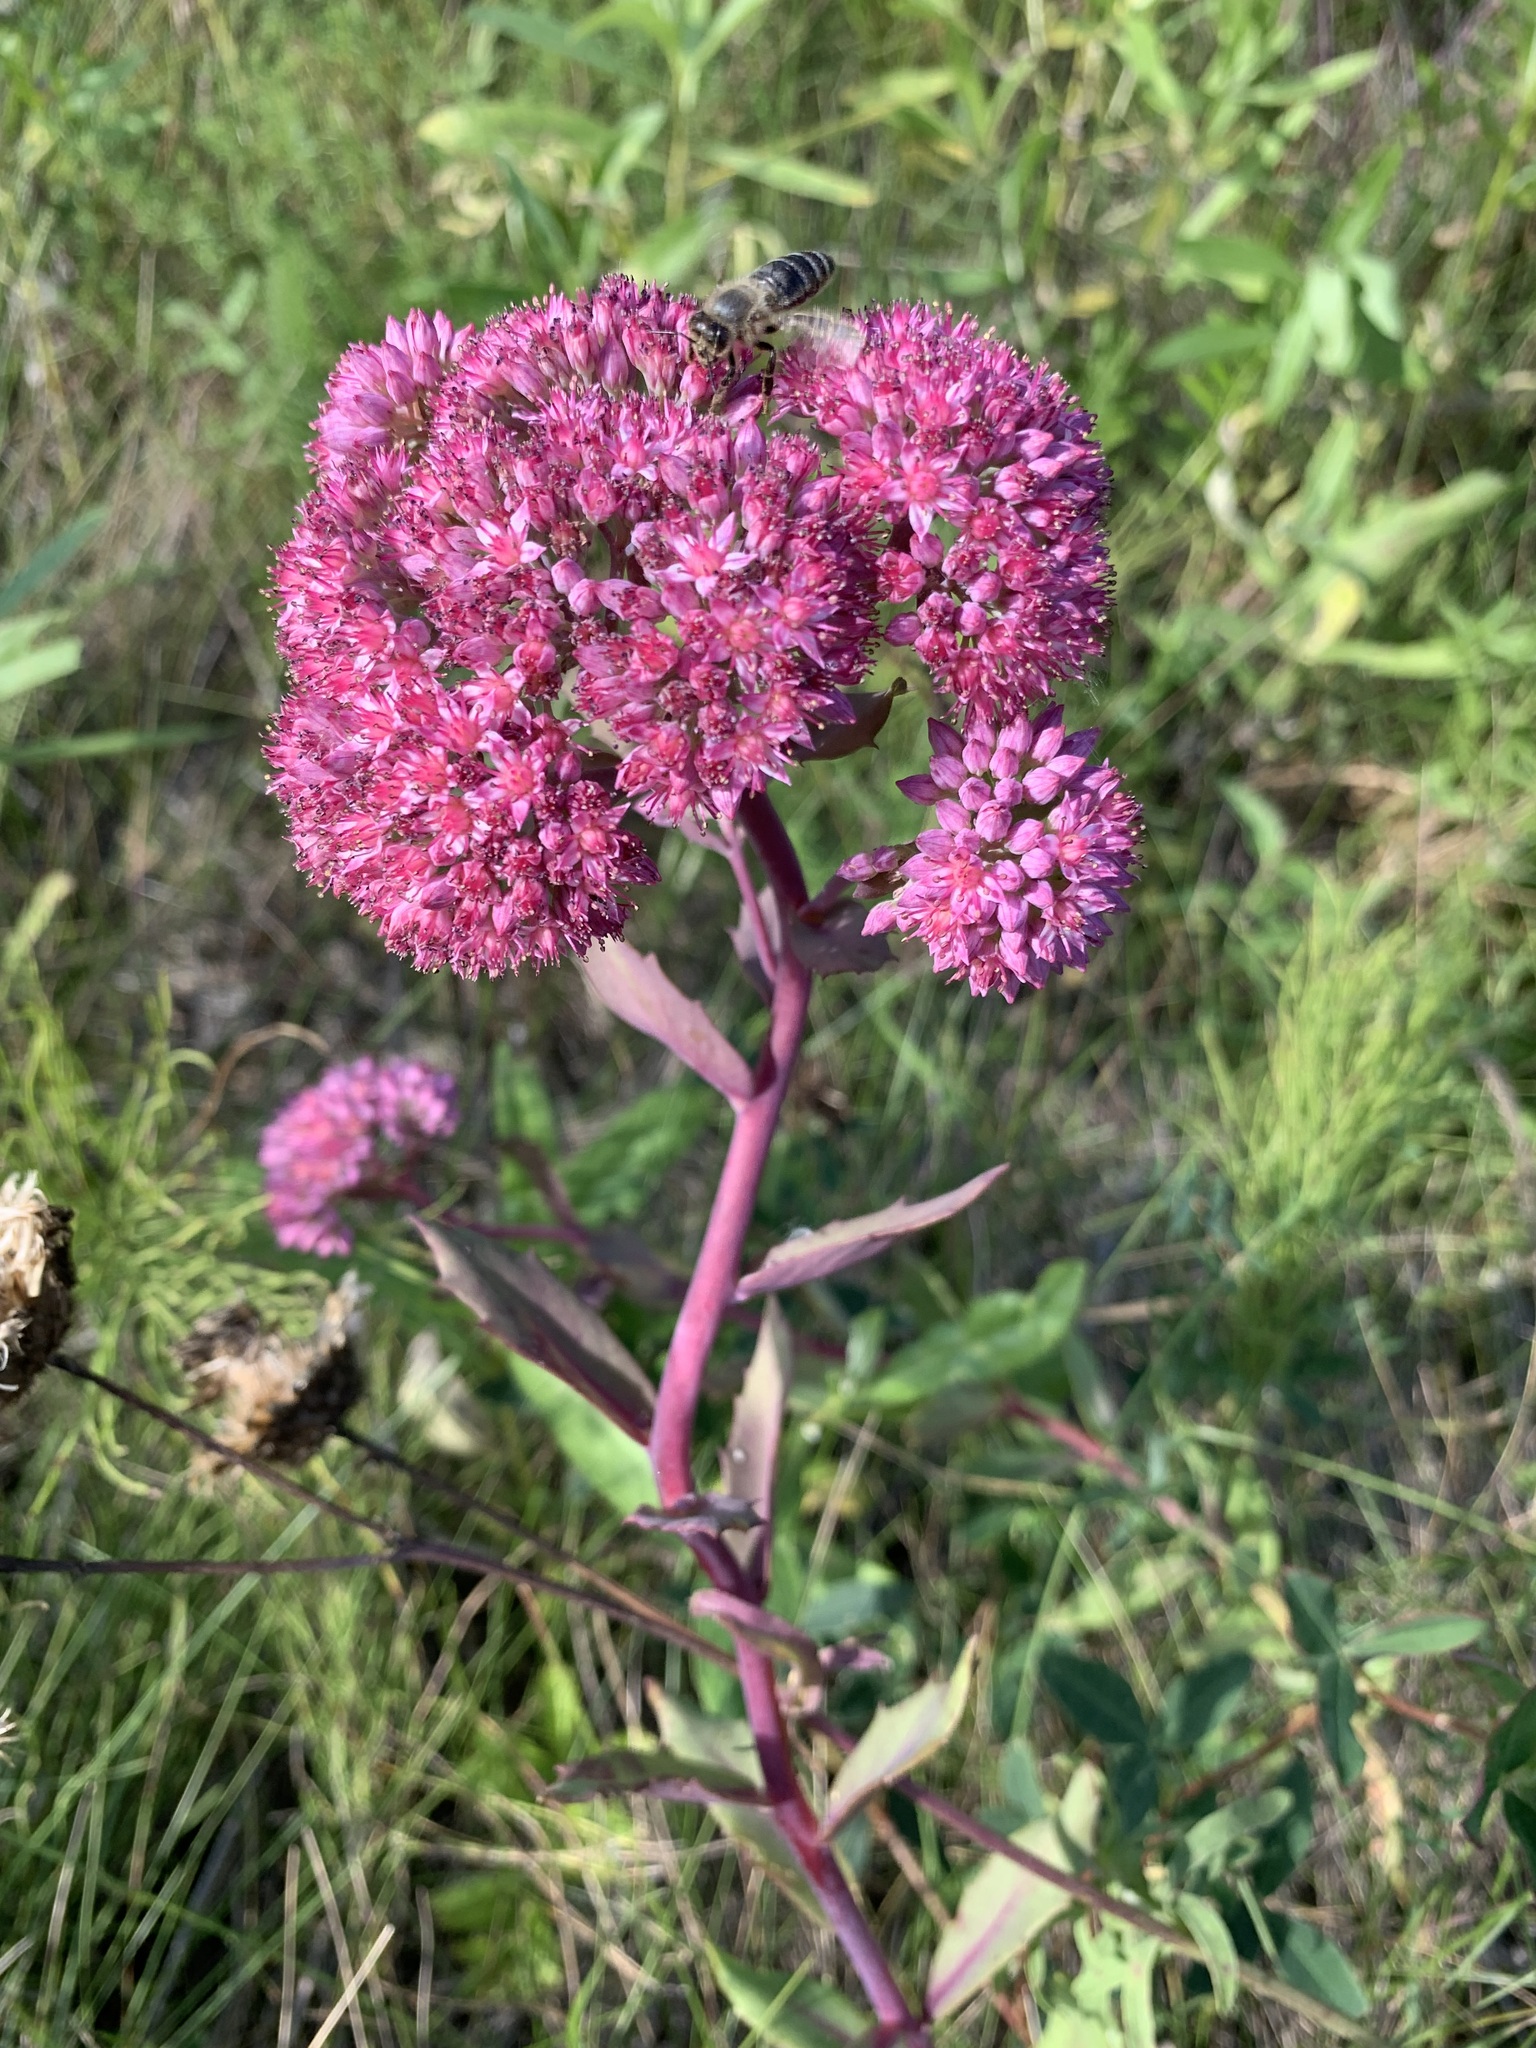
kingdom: Plantae
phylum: Tracheophyta
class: Magnoliopsida
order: Saxifragales
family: Crassulaceae
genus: Hylotelephium
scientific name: Hylotelephium telephium
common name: Live-forever
